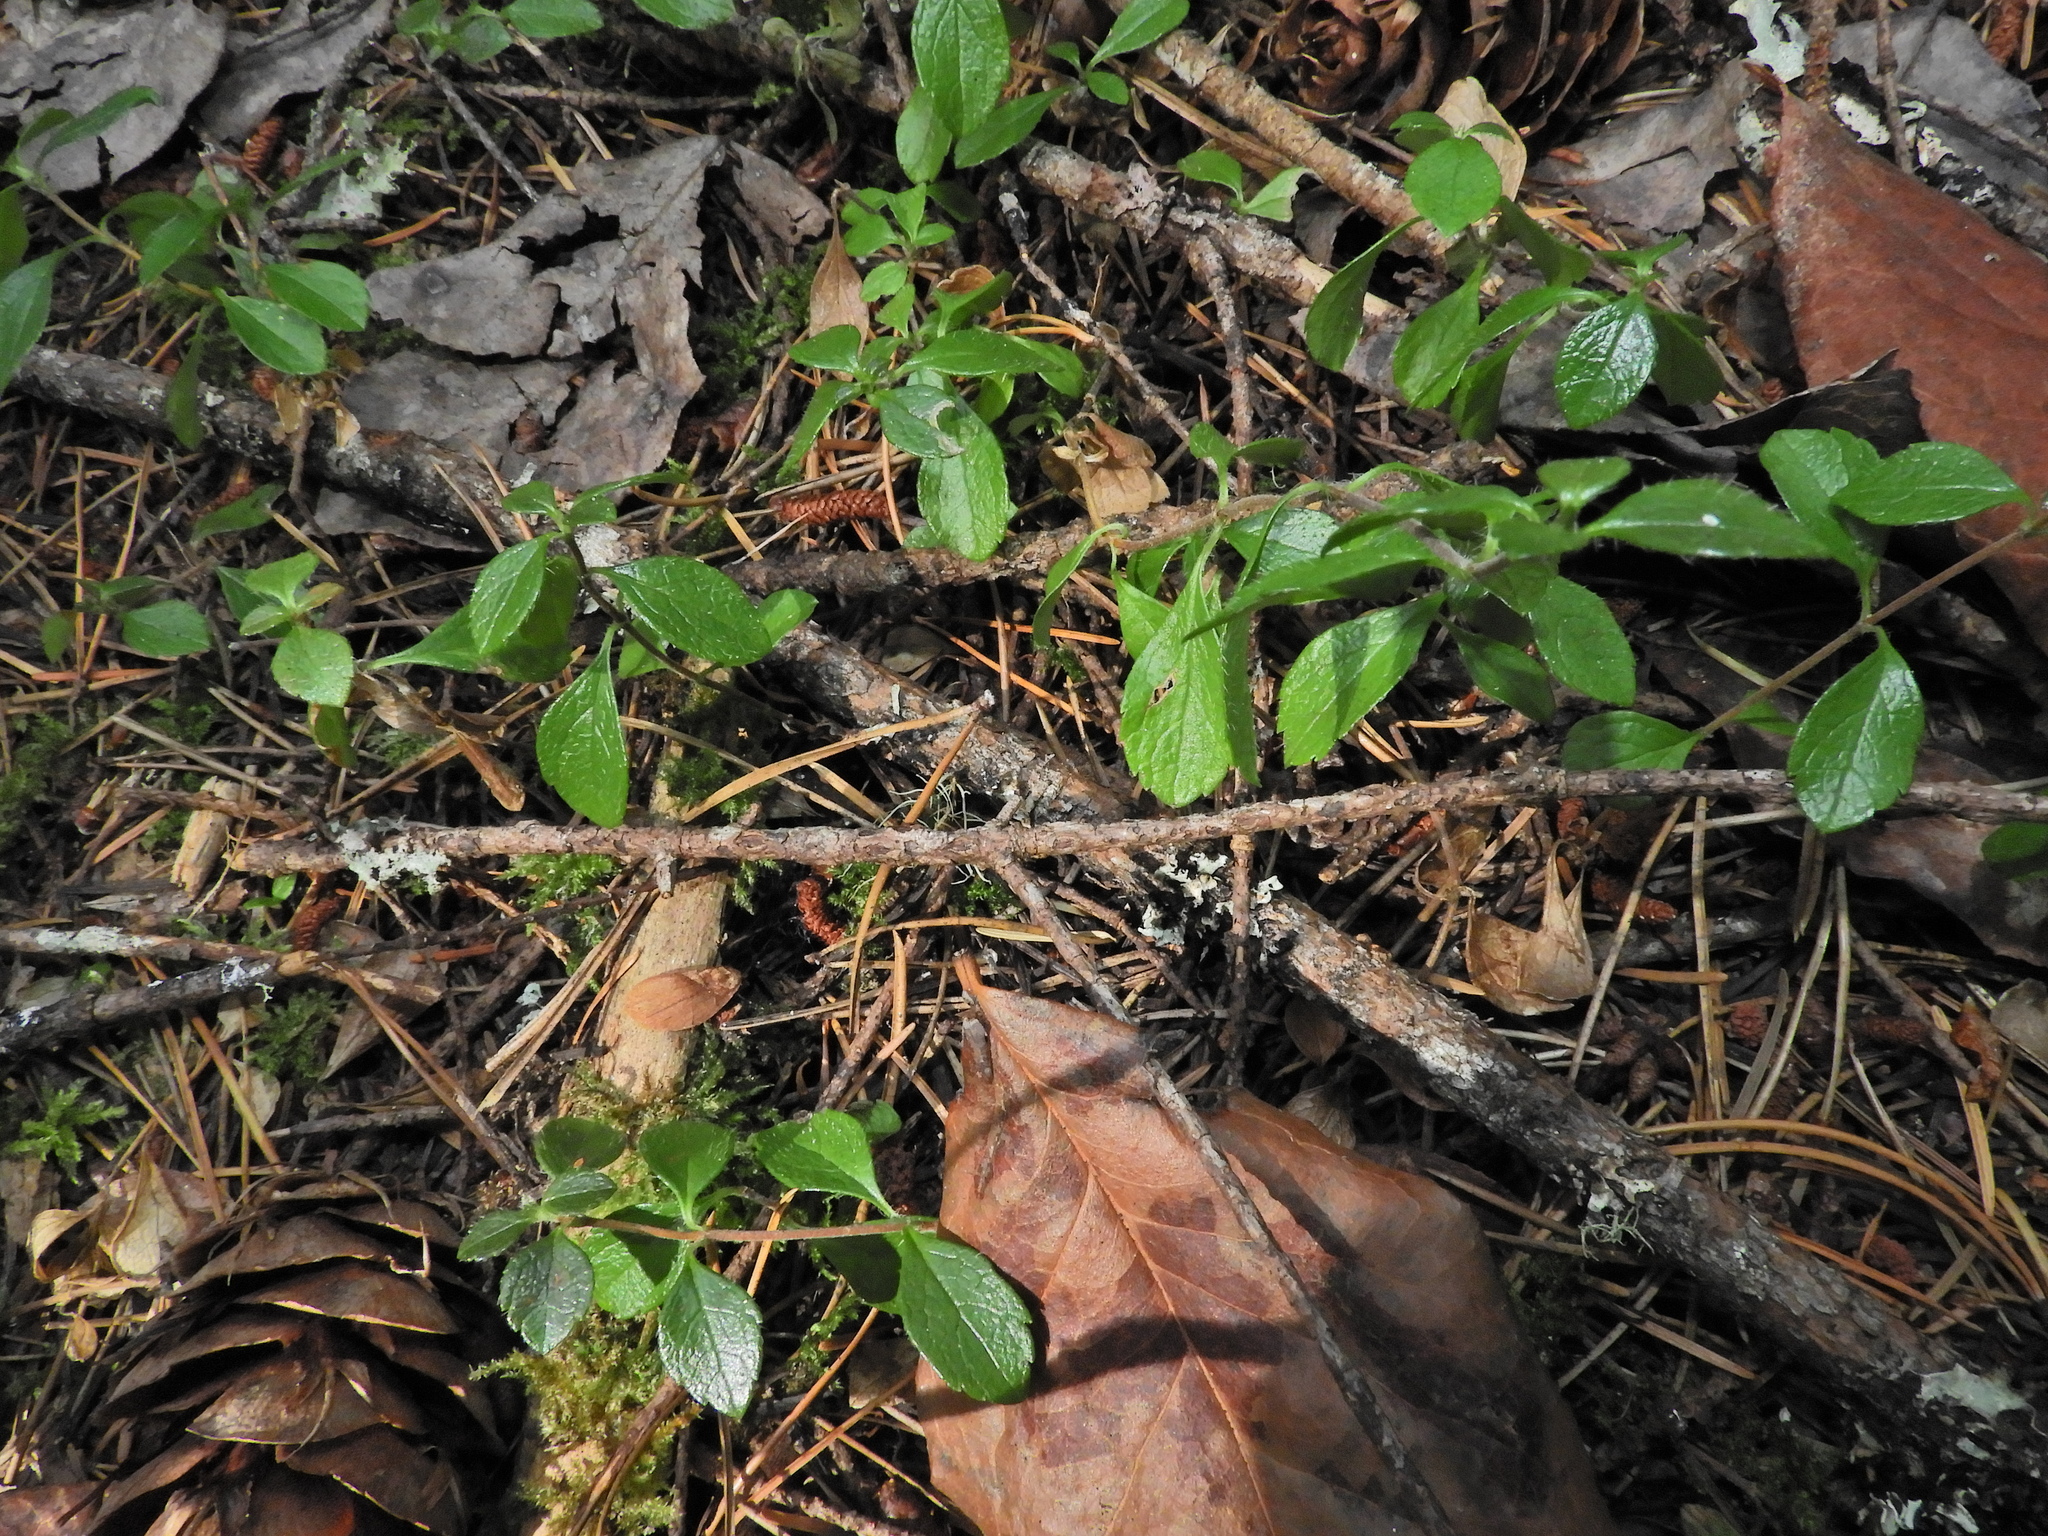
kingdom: Plantae
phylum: Tracheophyta
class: Magnoliopsida
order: Dipsacales
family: Caprifoliaceae
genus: Linnaea
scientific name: Linnaea borealis
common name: Twinflower
